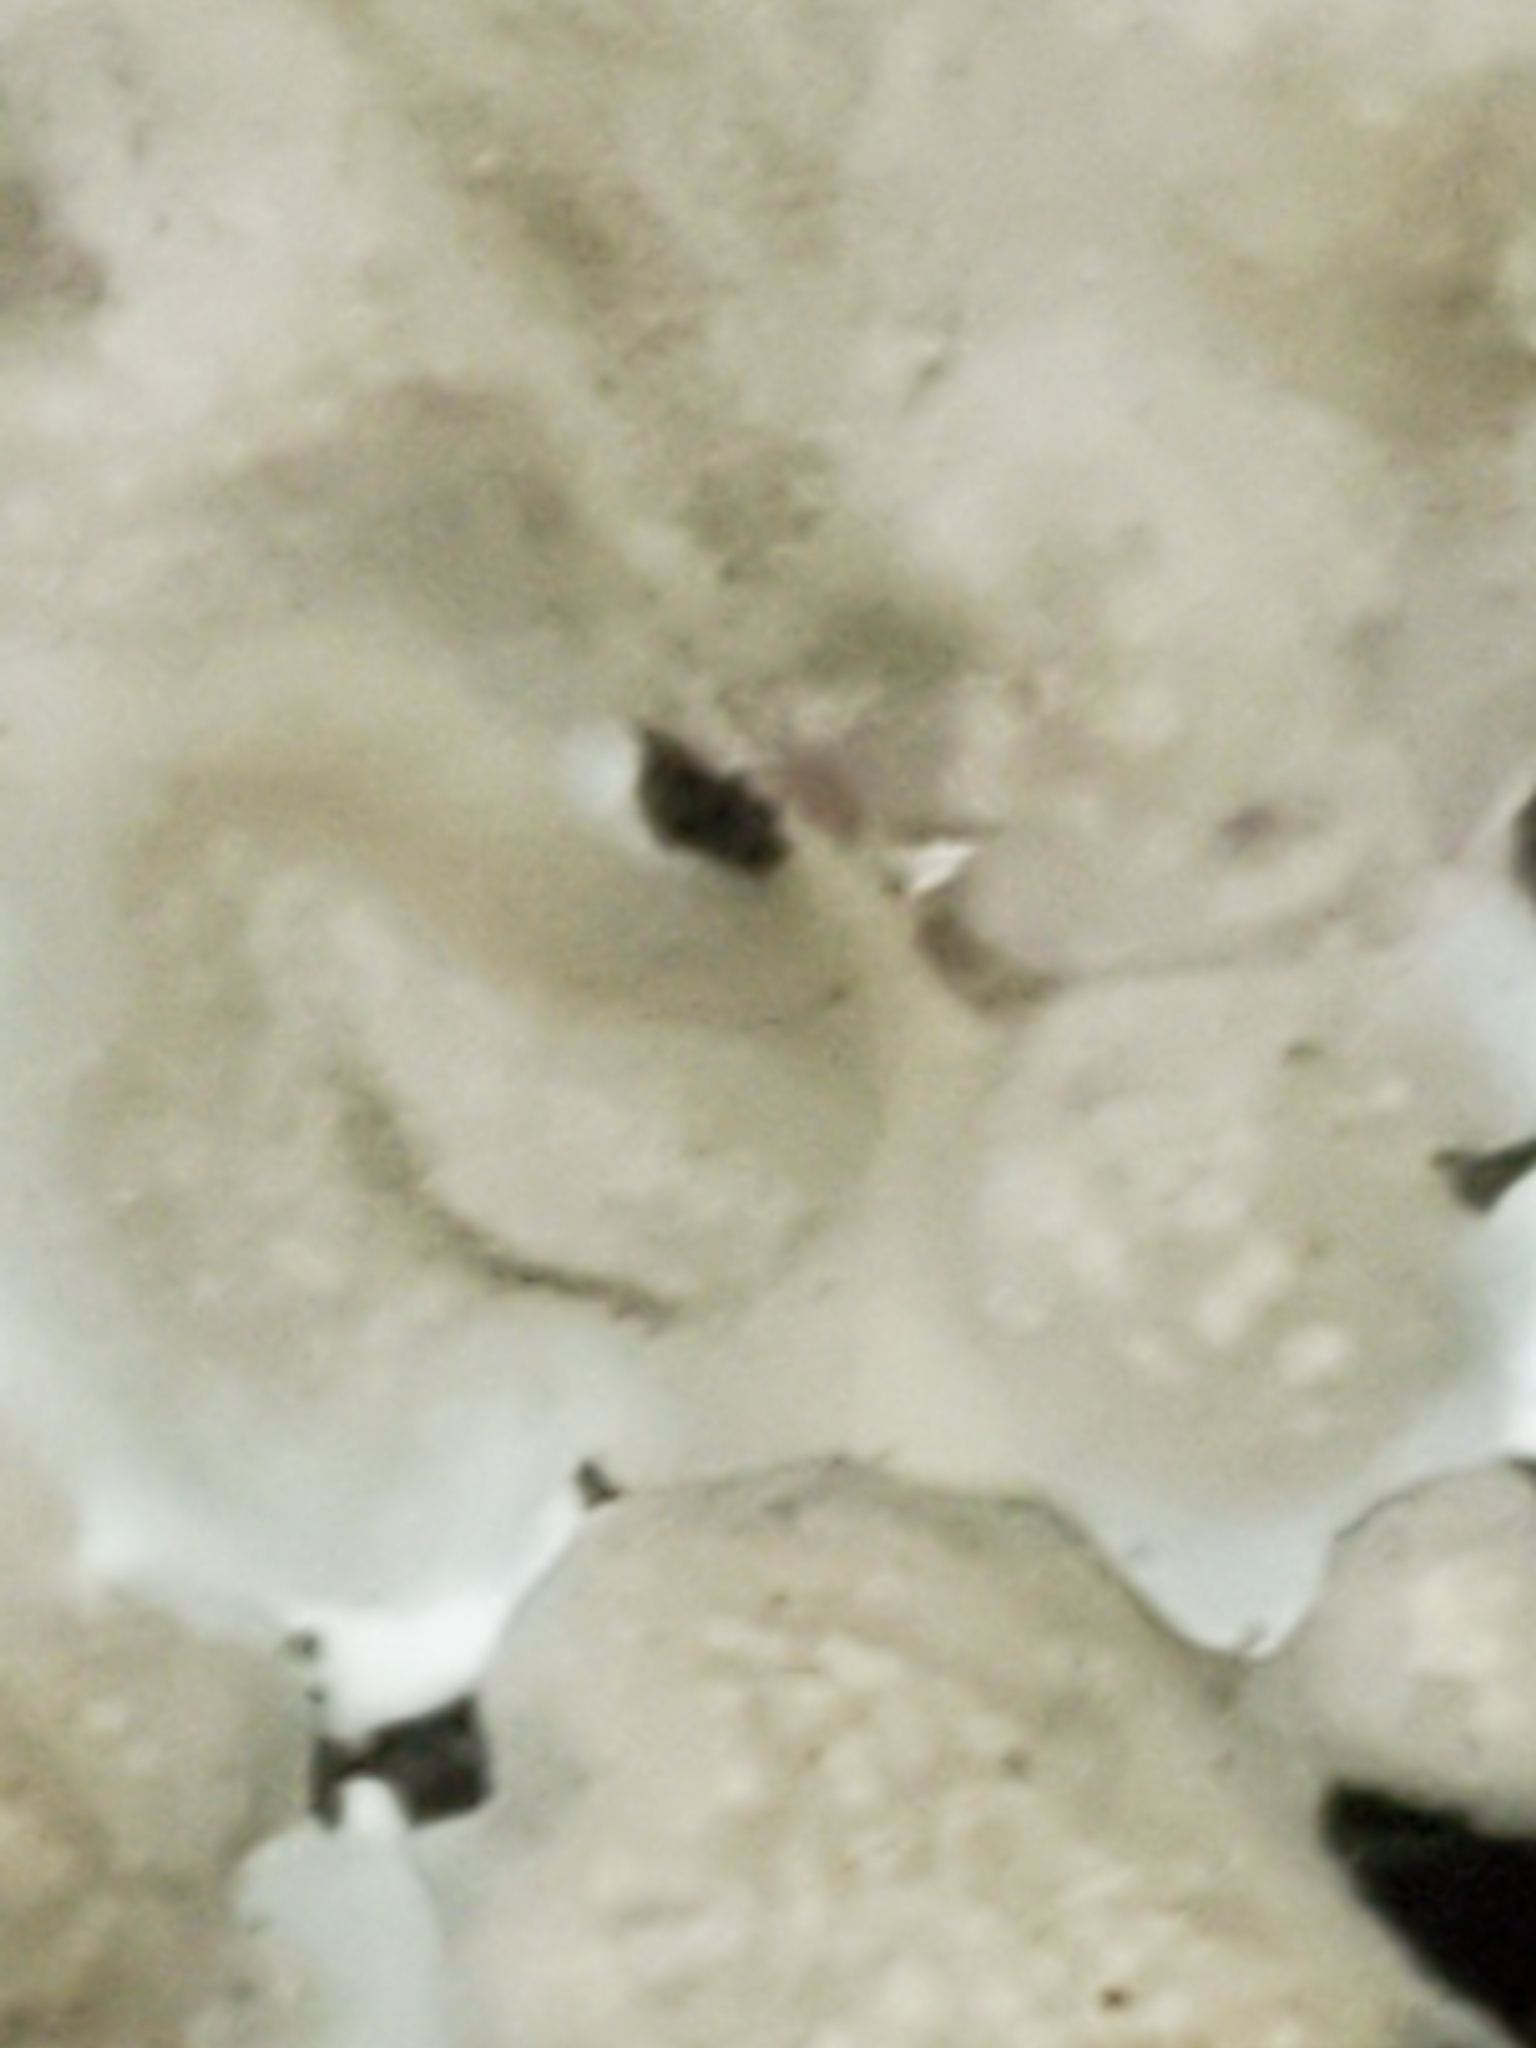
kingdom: Fungi
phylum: Ascomycota
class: Sordariomycetes
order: Xylariales
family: Xylariaceae
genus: Kretzschmaria
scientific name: Kretzschmaria deusta
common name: Brittle cinder
